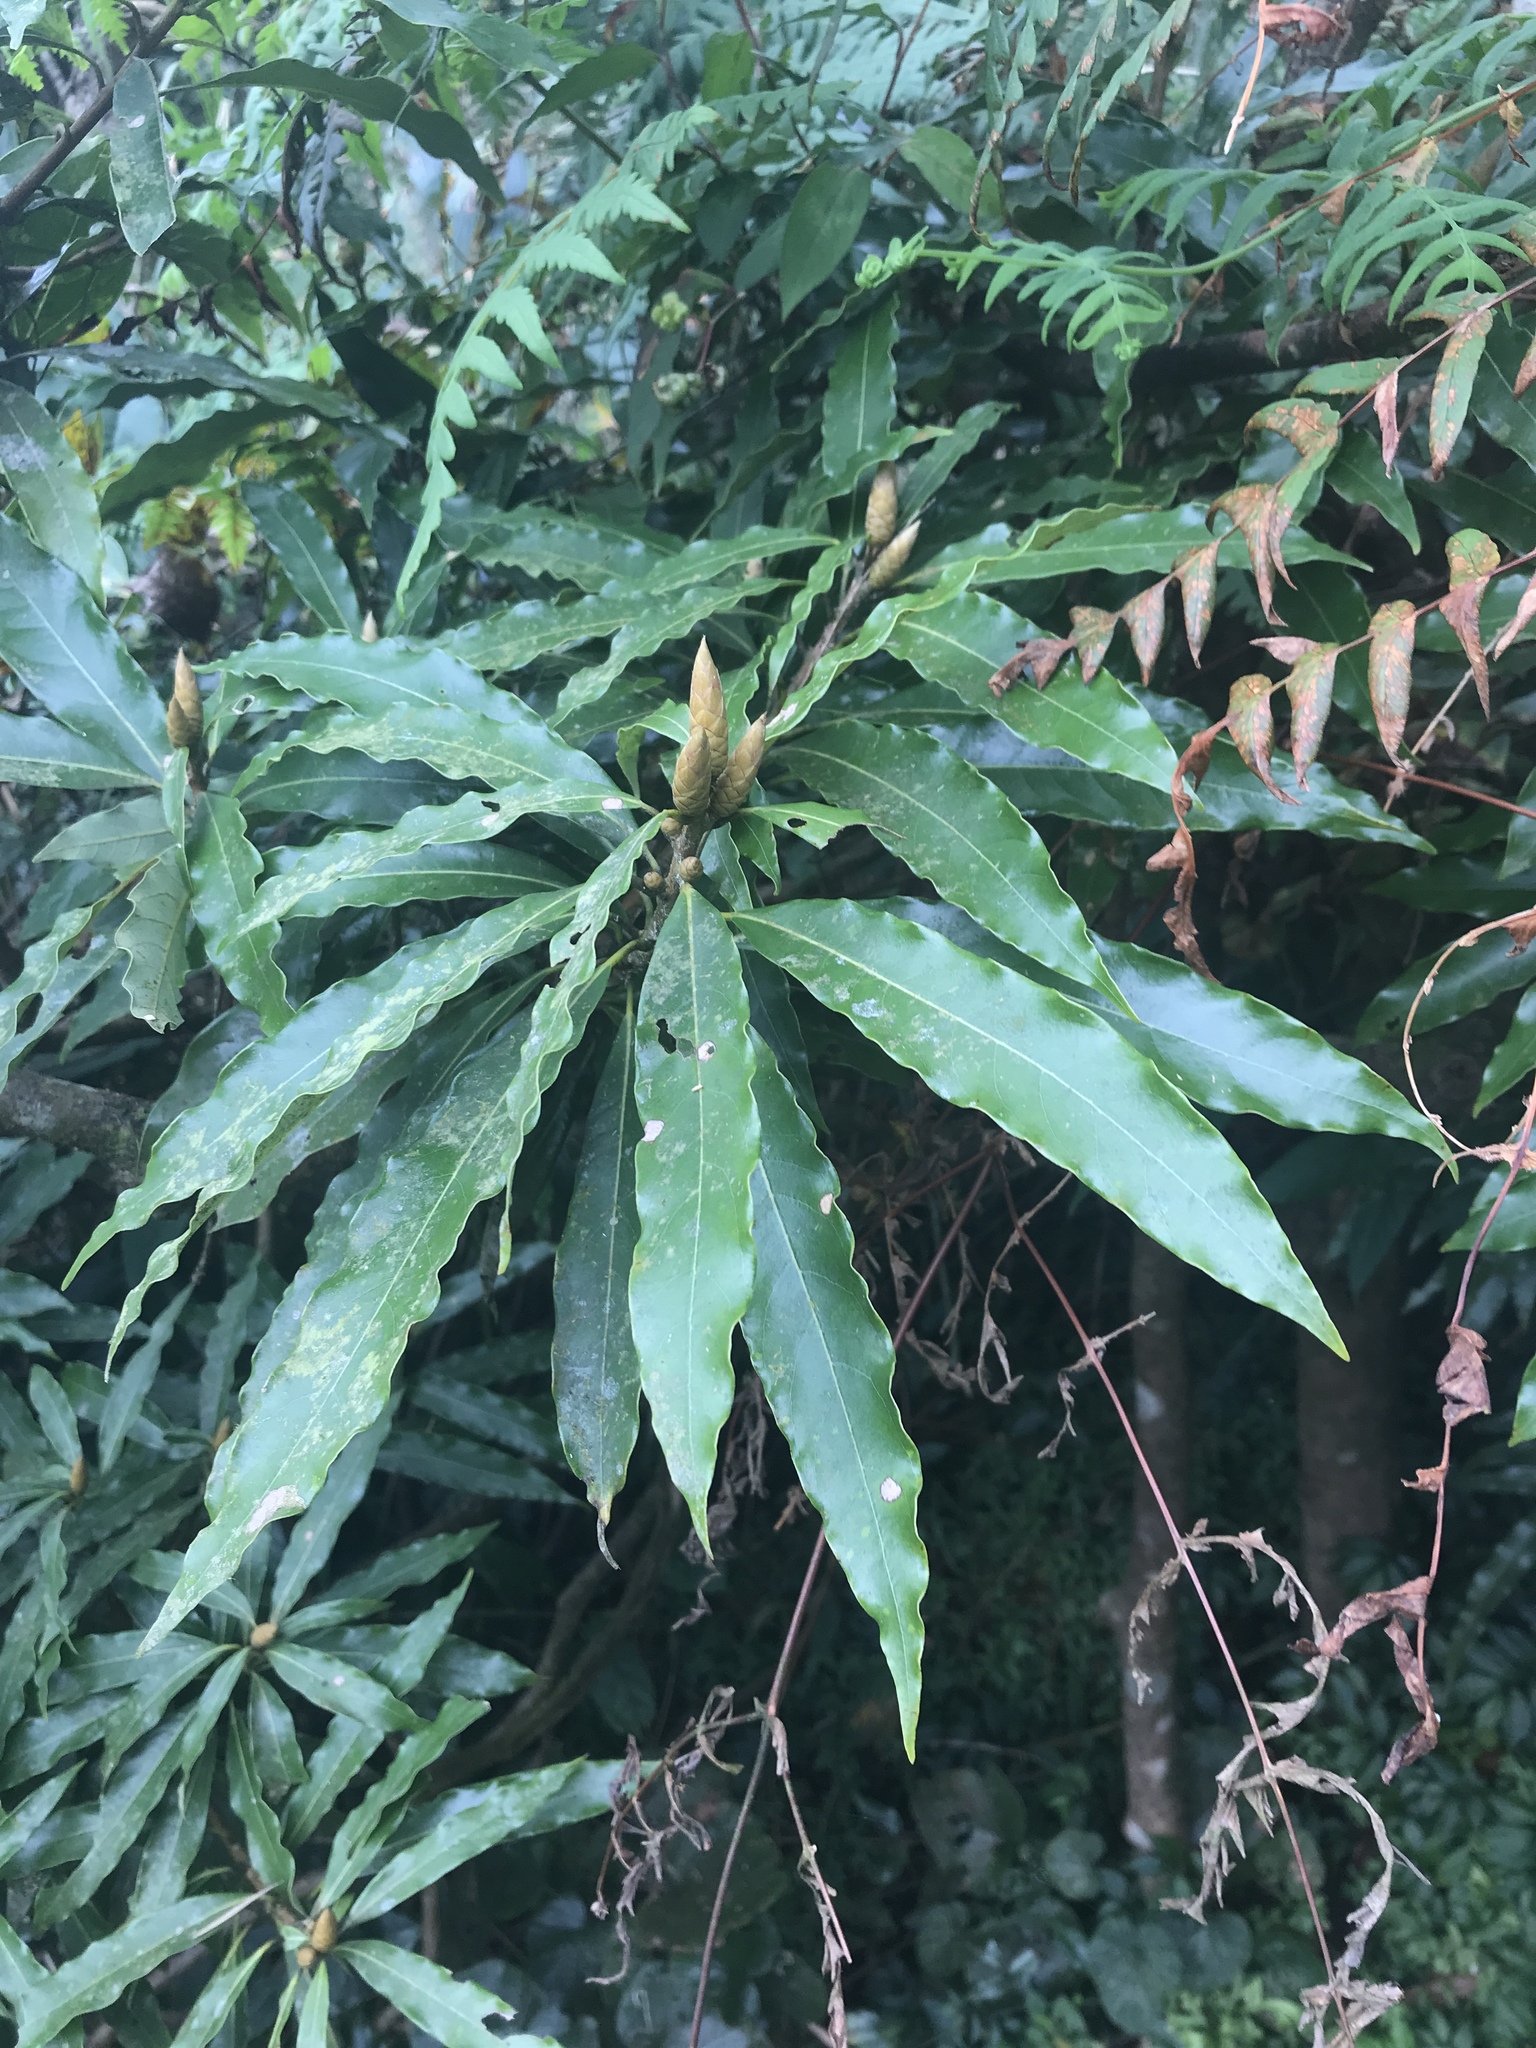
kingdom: Plantae
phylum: Tracheophyta
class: Magnoliopsida
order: Laurales
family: Lauraceae
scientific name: Lauraceae
